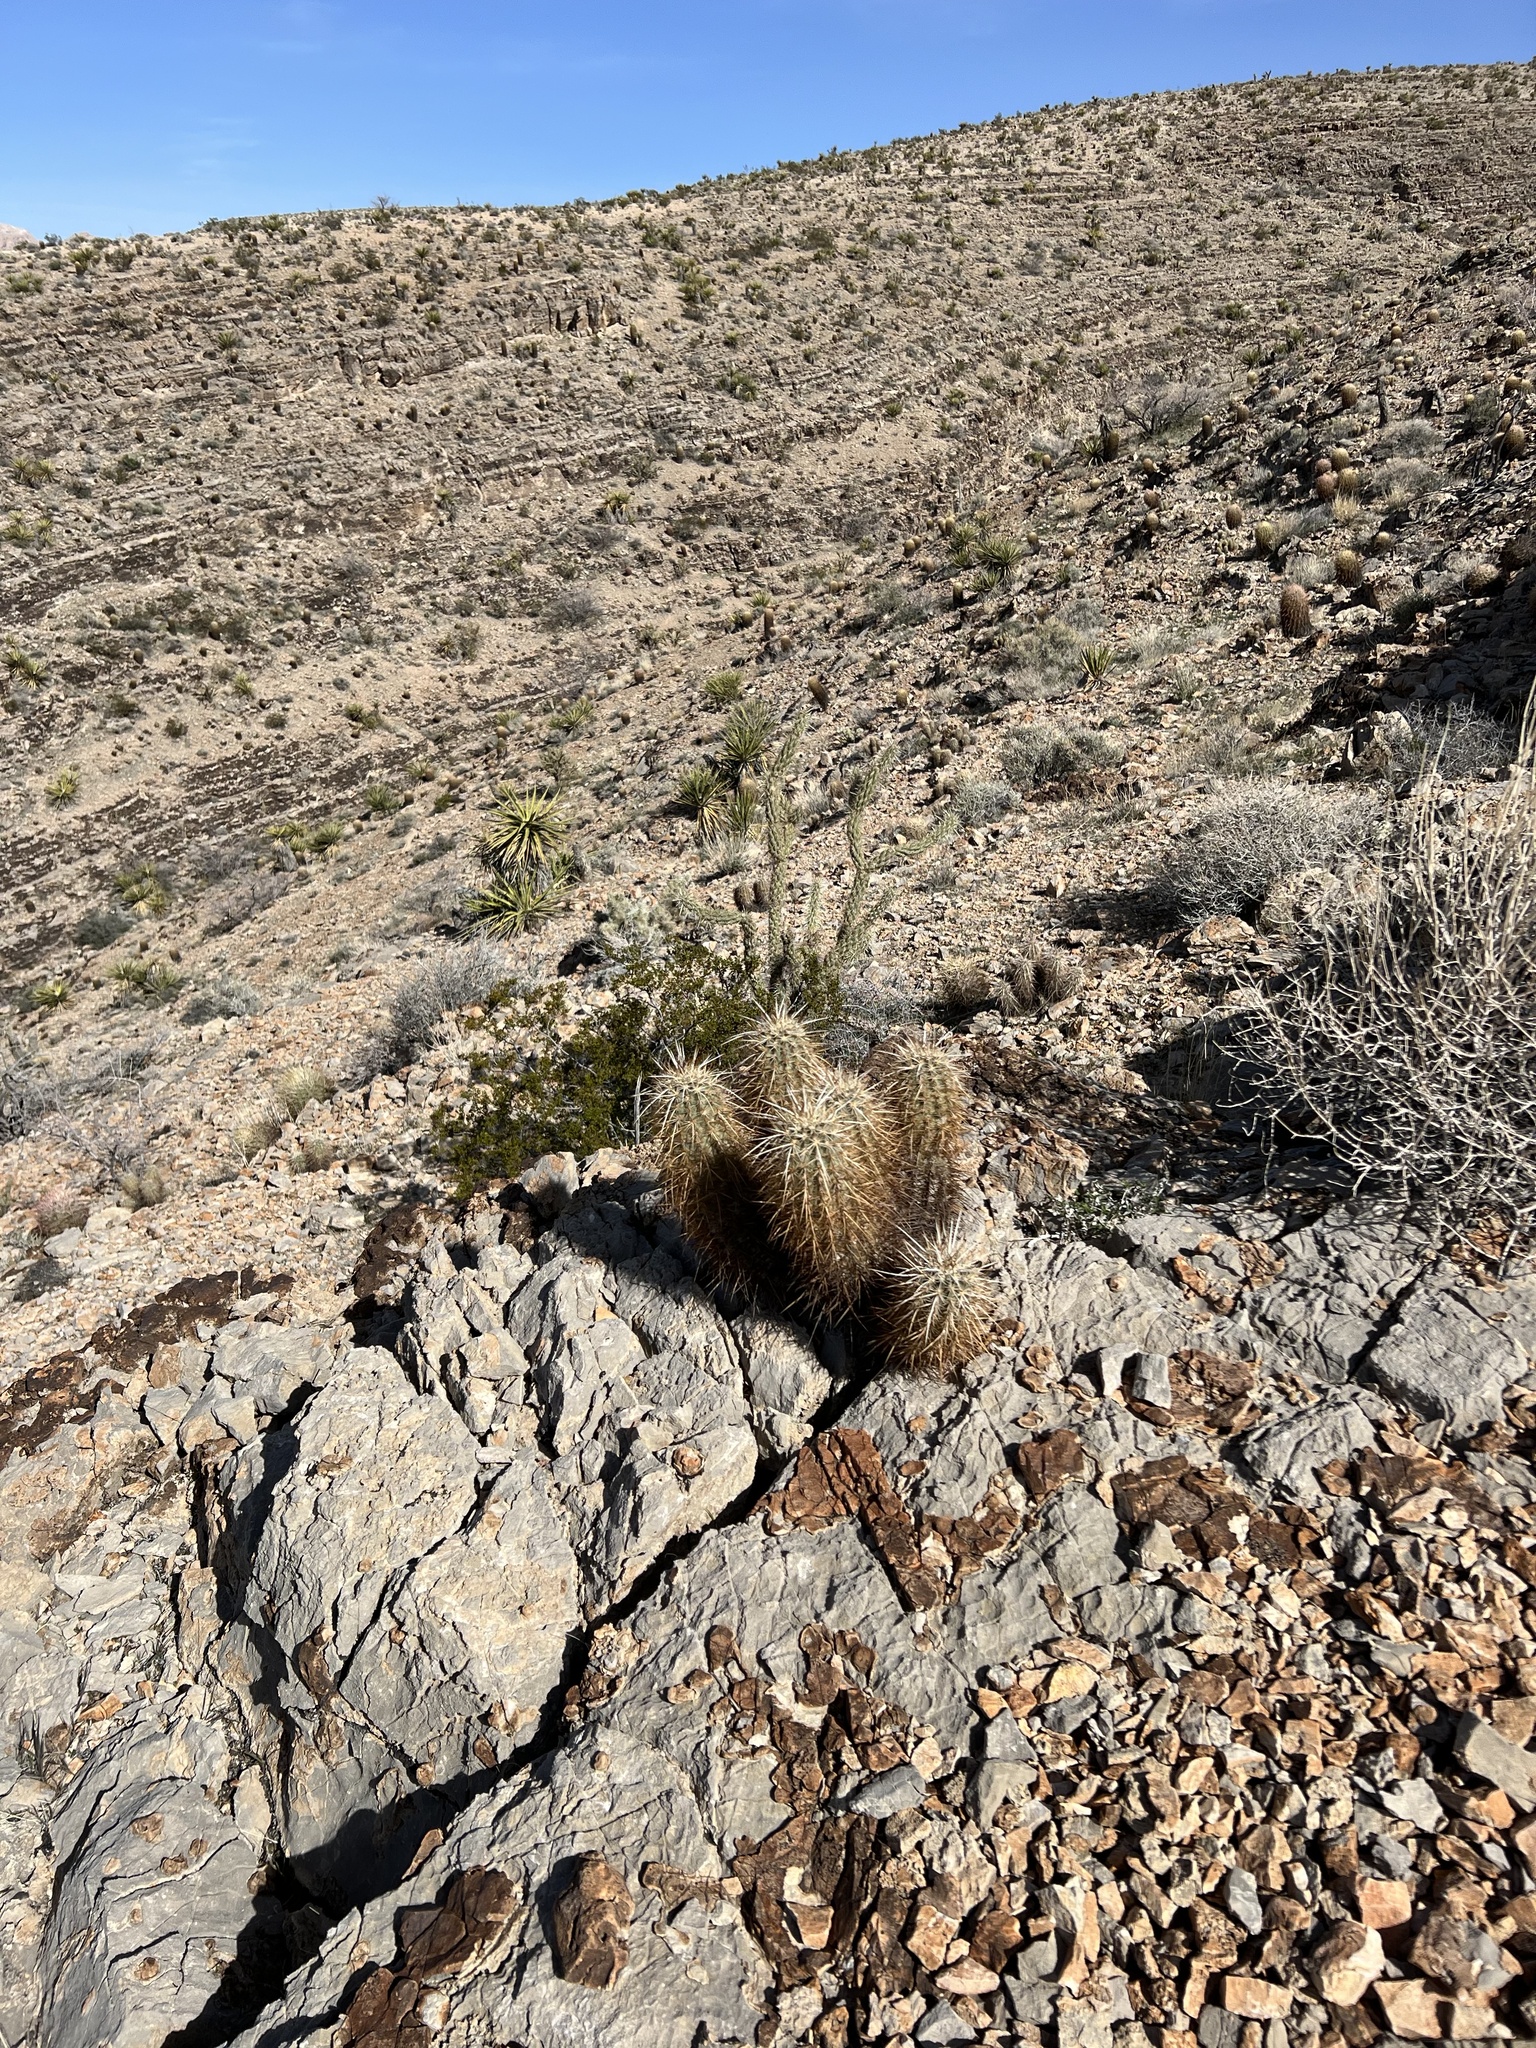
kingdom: Plantae
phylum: Tracheophyta
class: Magnoliopsida
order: Caryophyllales
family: Cactaceae
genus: Echinocereus
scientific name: Echinocereus engelmannii
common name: Engelmann's hedgehog cactus
